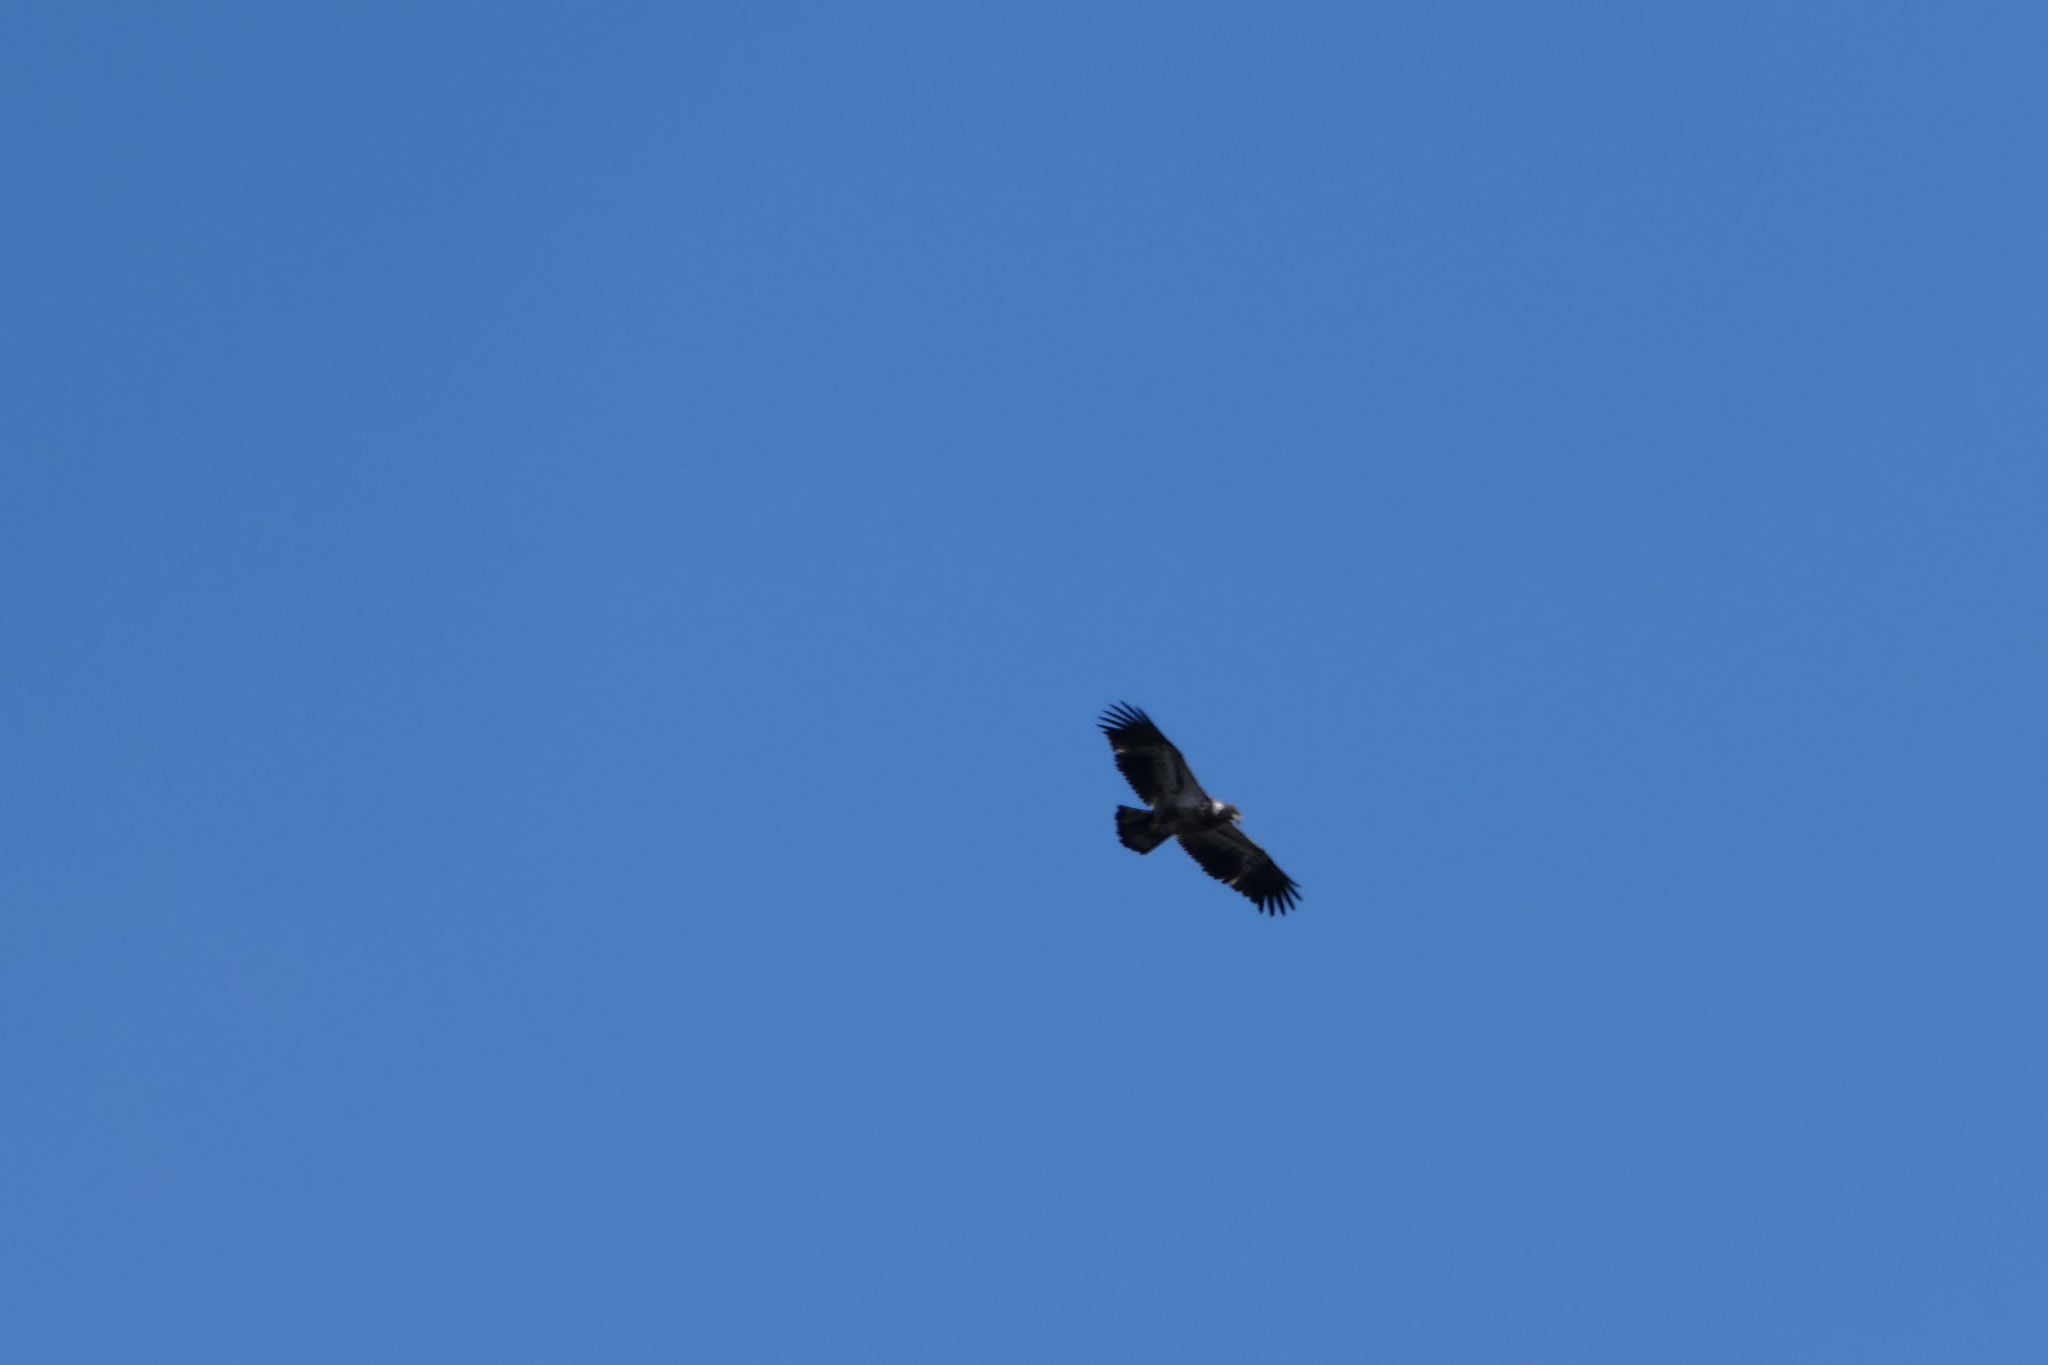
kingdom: Animalia
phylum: Chordata
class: Aves
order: Accipitriformes
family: Accipitridae
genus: Haliaeetus
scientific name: Haliaeetus leucocephalus
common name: Bald eagle
